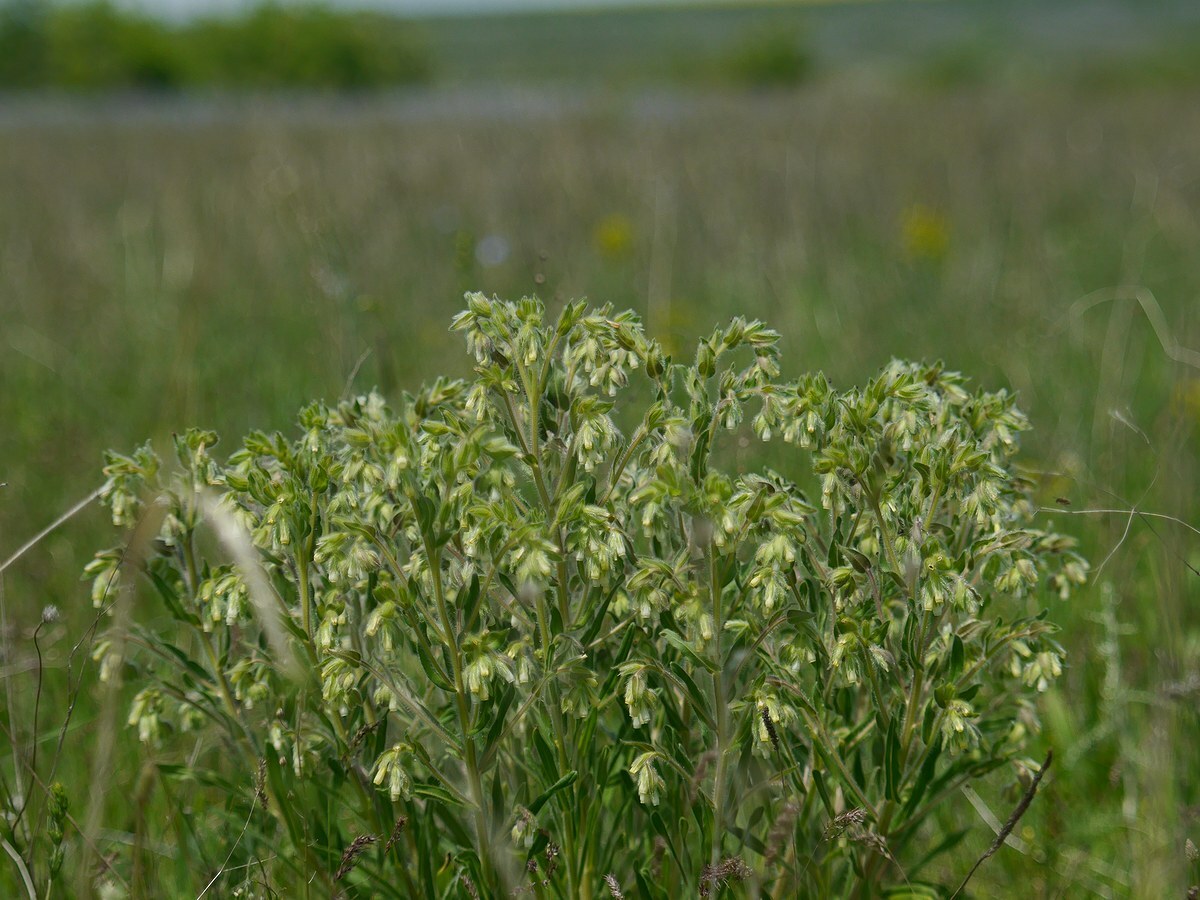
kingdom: Plantae
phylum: Tracheophyta
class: Magnoliopsida
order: Boraginales
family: Boraginaceae
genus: Onosma
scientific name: Onosma visianii
